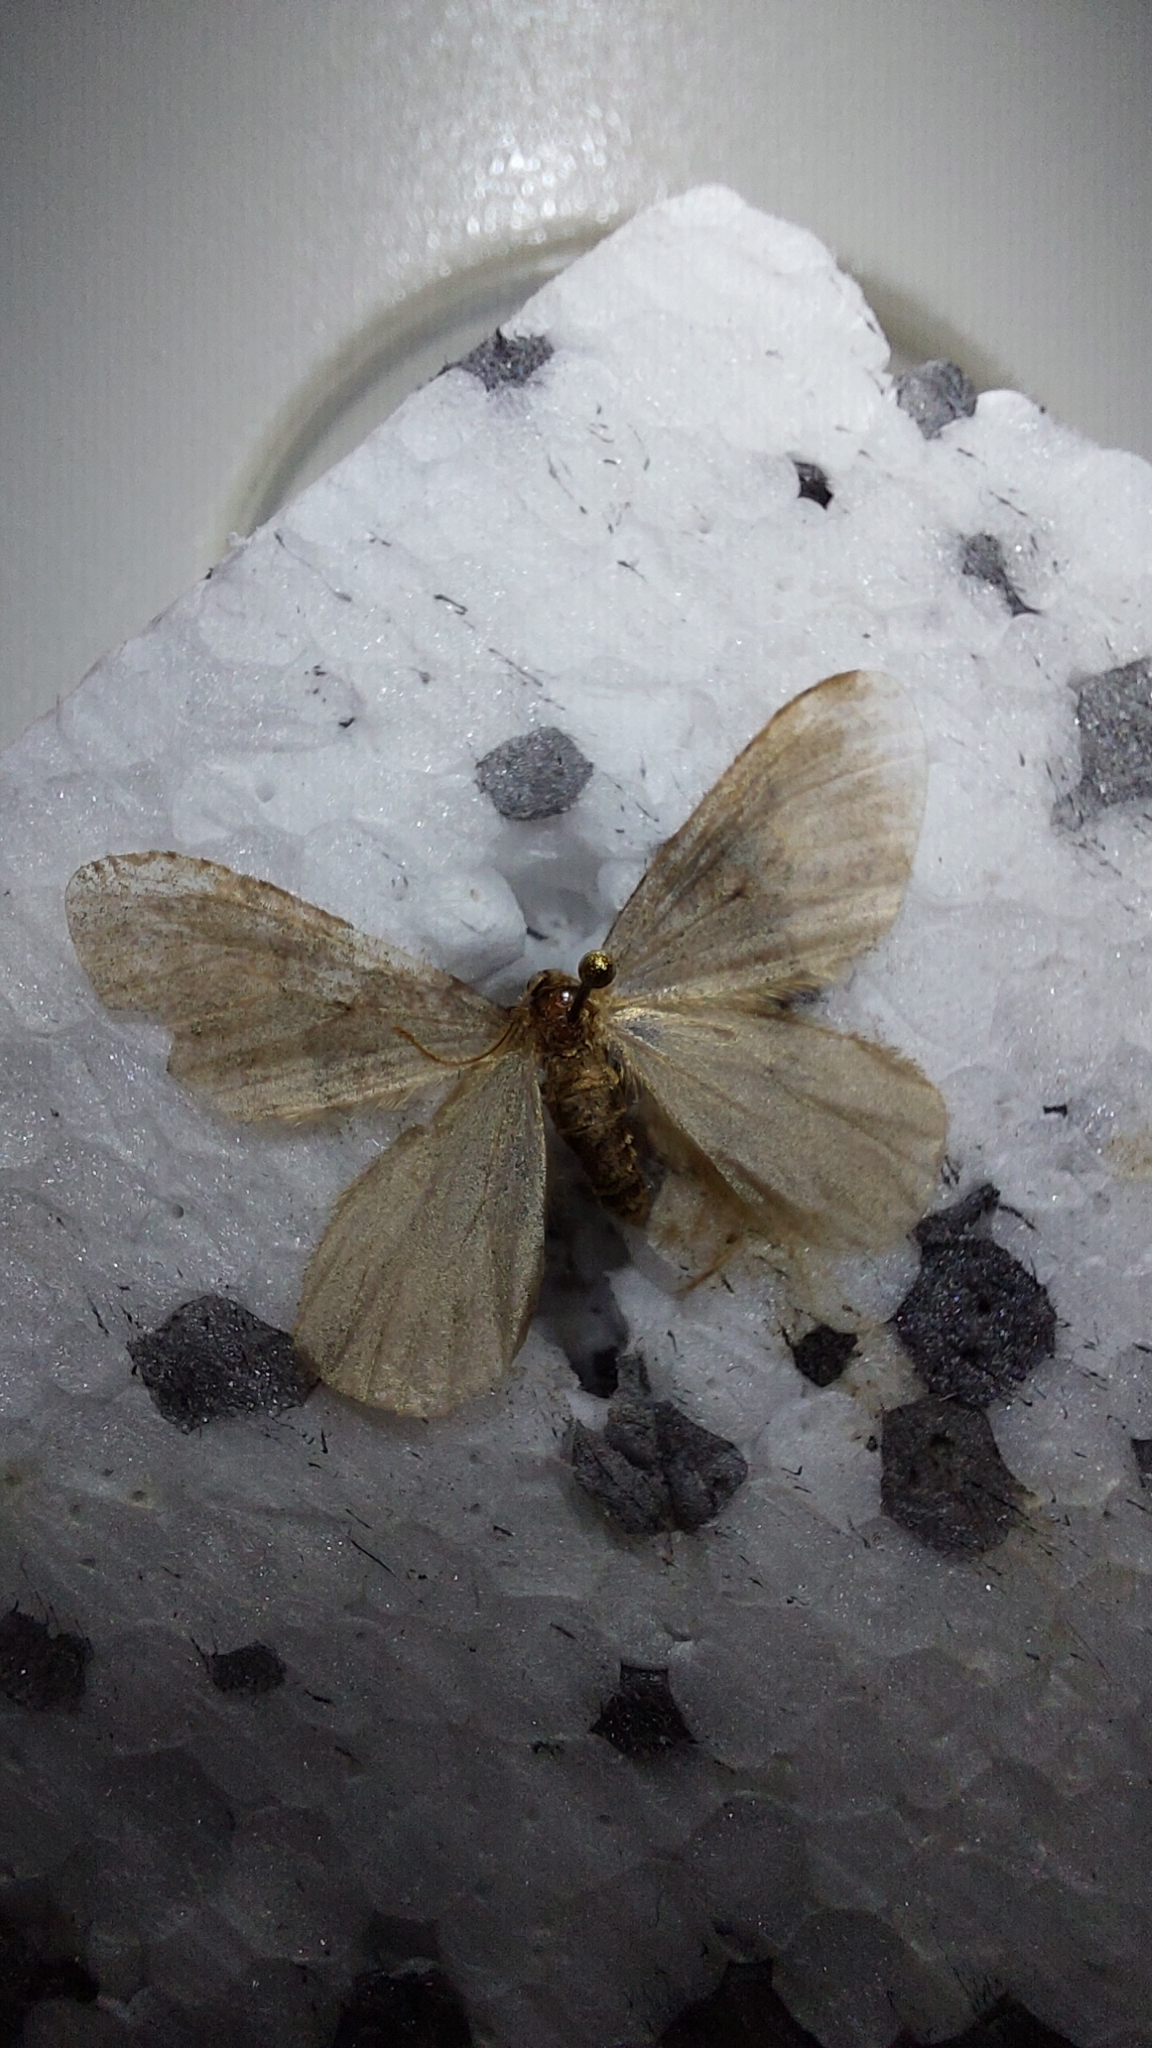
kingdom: Animalia
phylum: Arthropoda
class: Insecta
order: Lepidoptera
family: Geometridae
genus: Operophtera
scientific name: Operophtera brumata
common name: Winter moth
